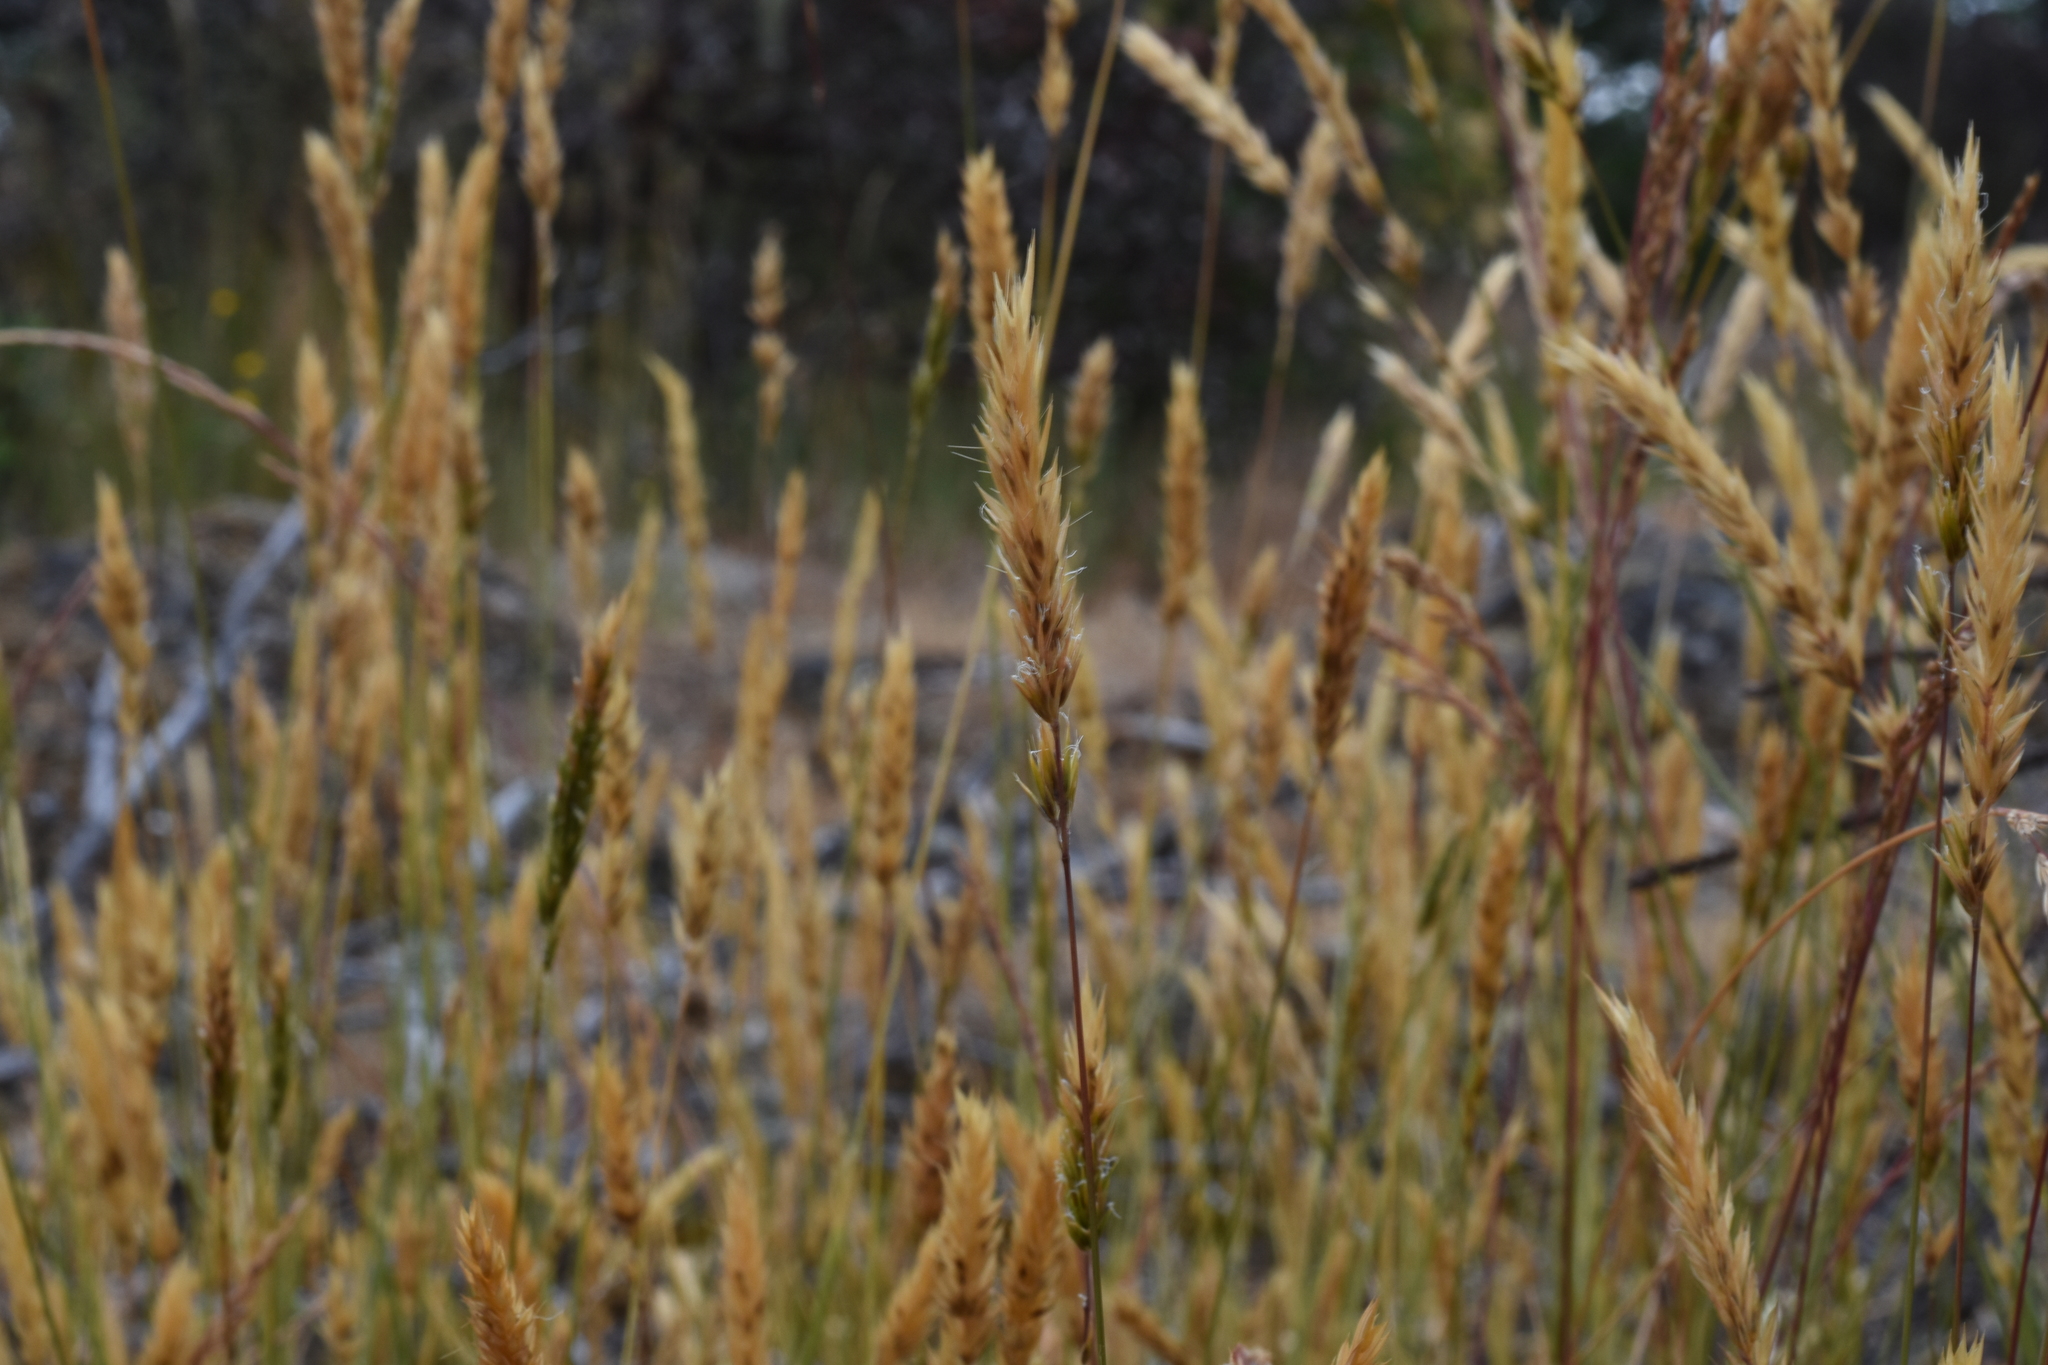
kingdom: Plantae
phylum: Tracheophyta
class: Liliopsida
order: Poales
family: Poaceae
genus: Anthoxanthum
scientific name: Anthoxanthum odoratum
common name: Sweet vernalgrass
